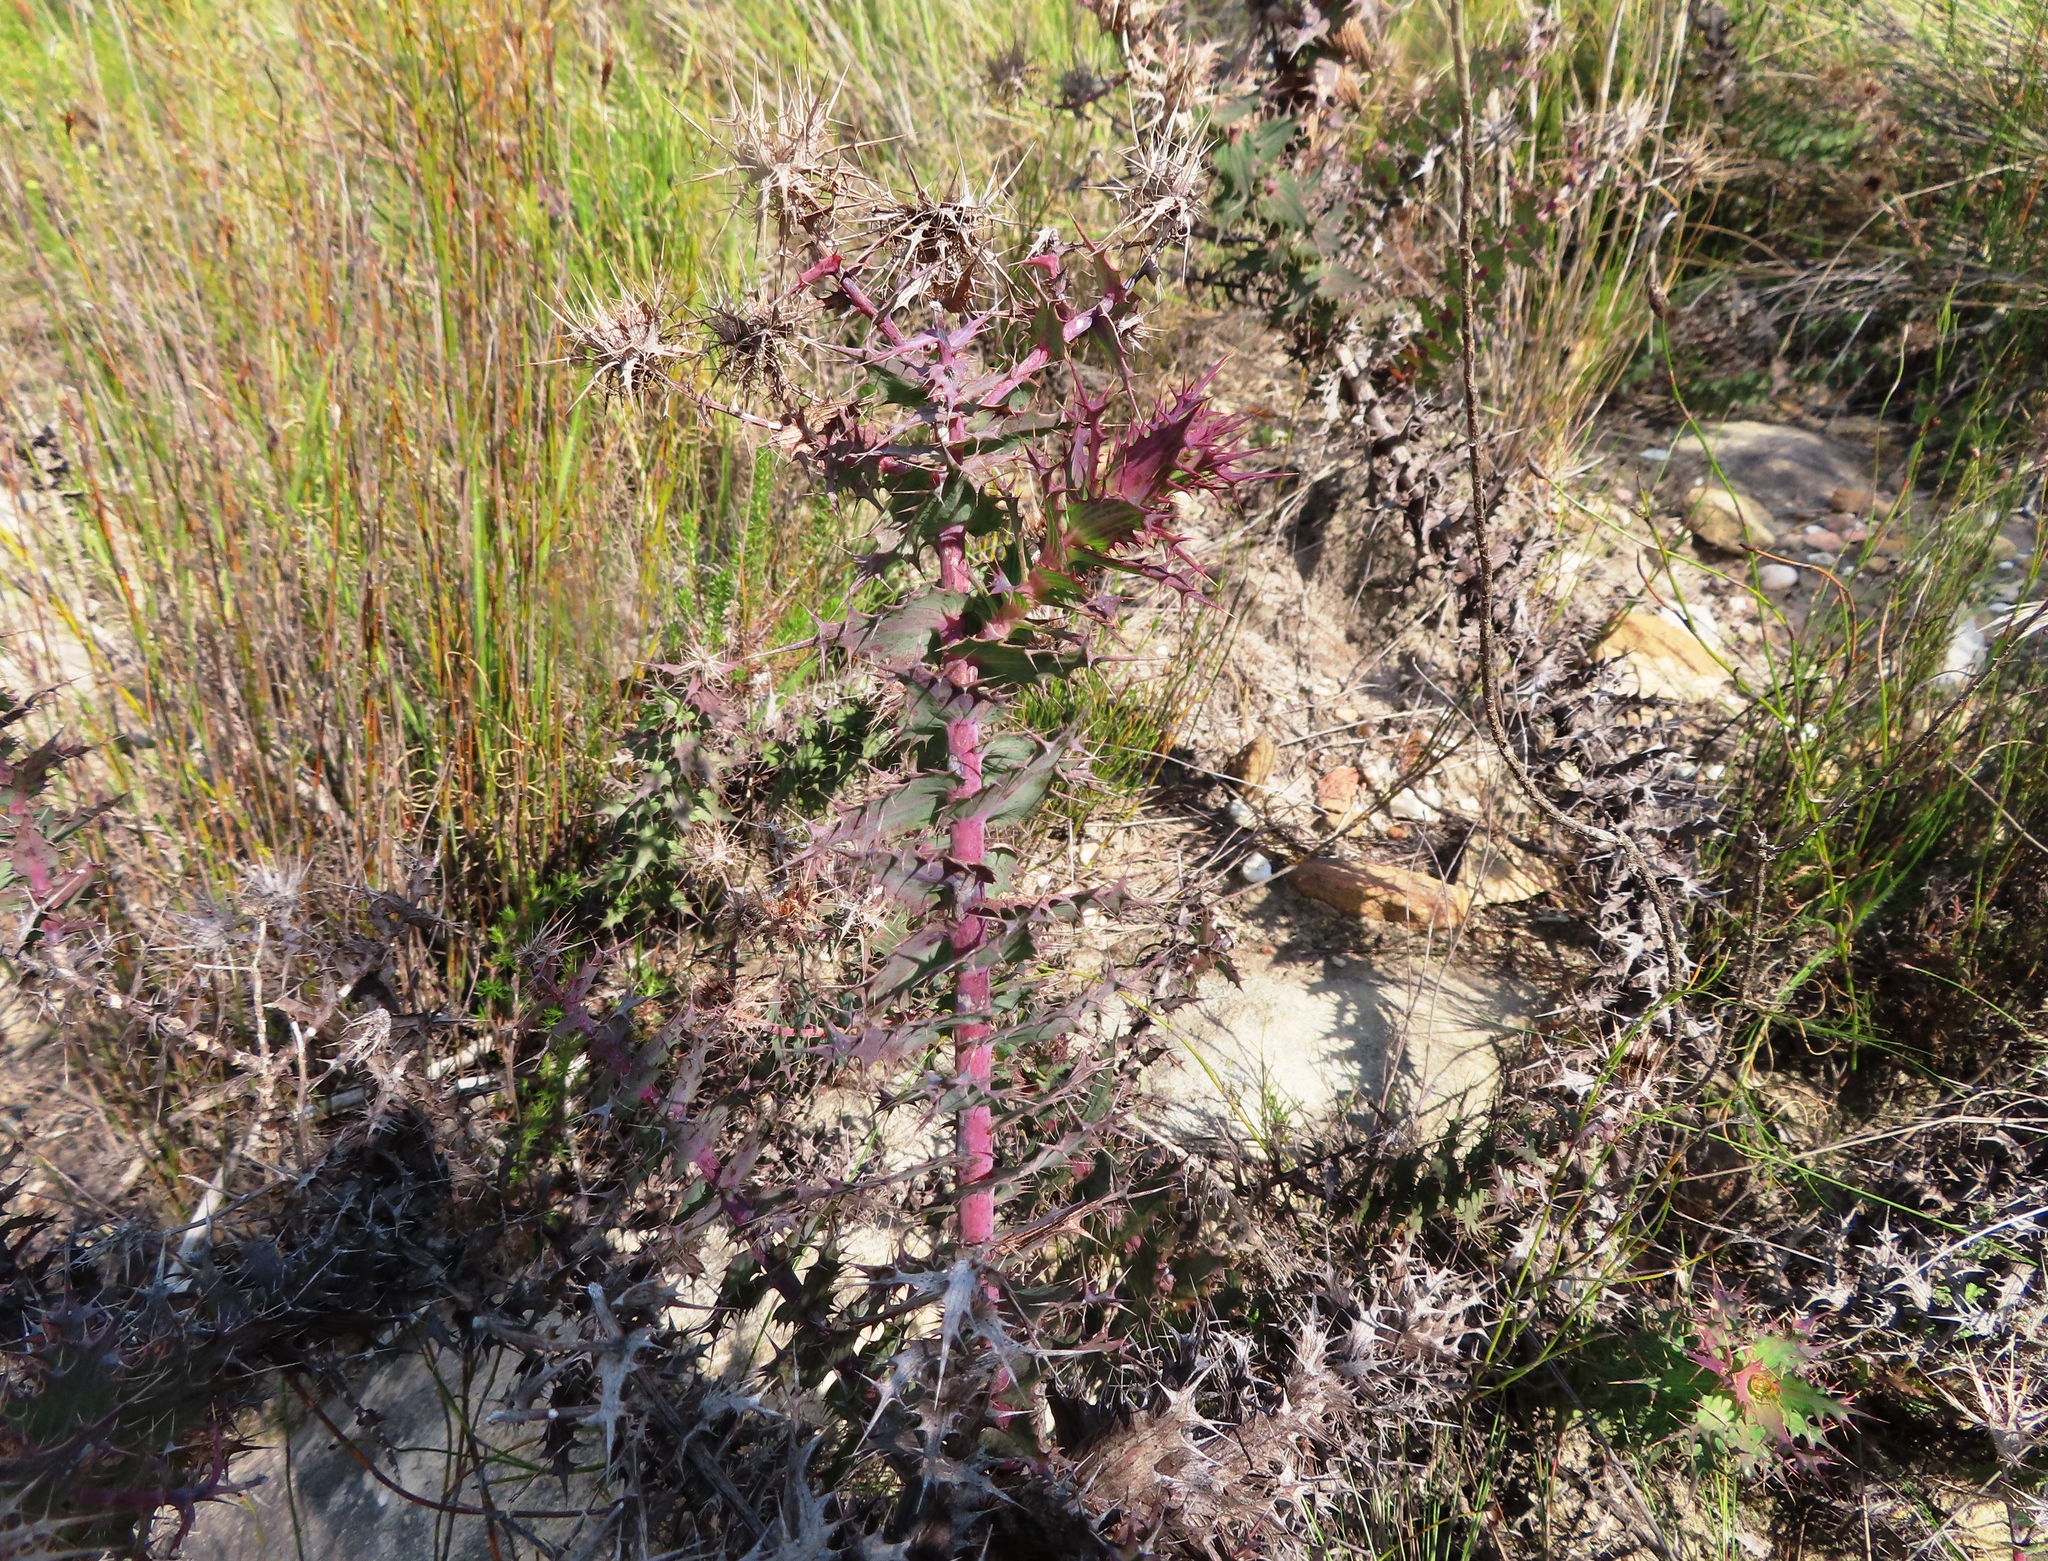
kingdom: Plantae
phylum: Tracheophyta
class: Magnoliopsida
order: Asterales
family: Asteraceae
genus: Berkheya
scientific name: Berkheya cruciata
